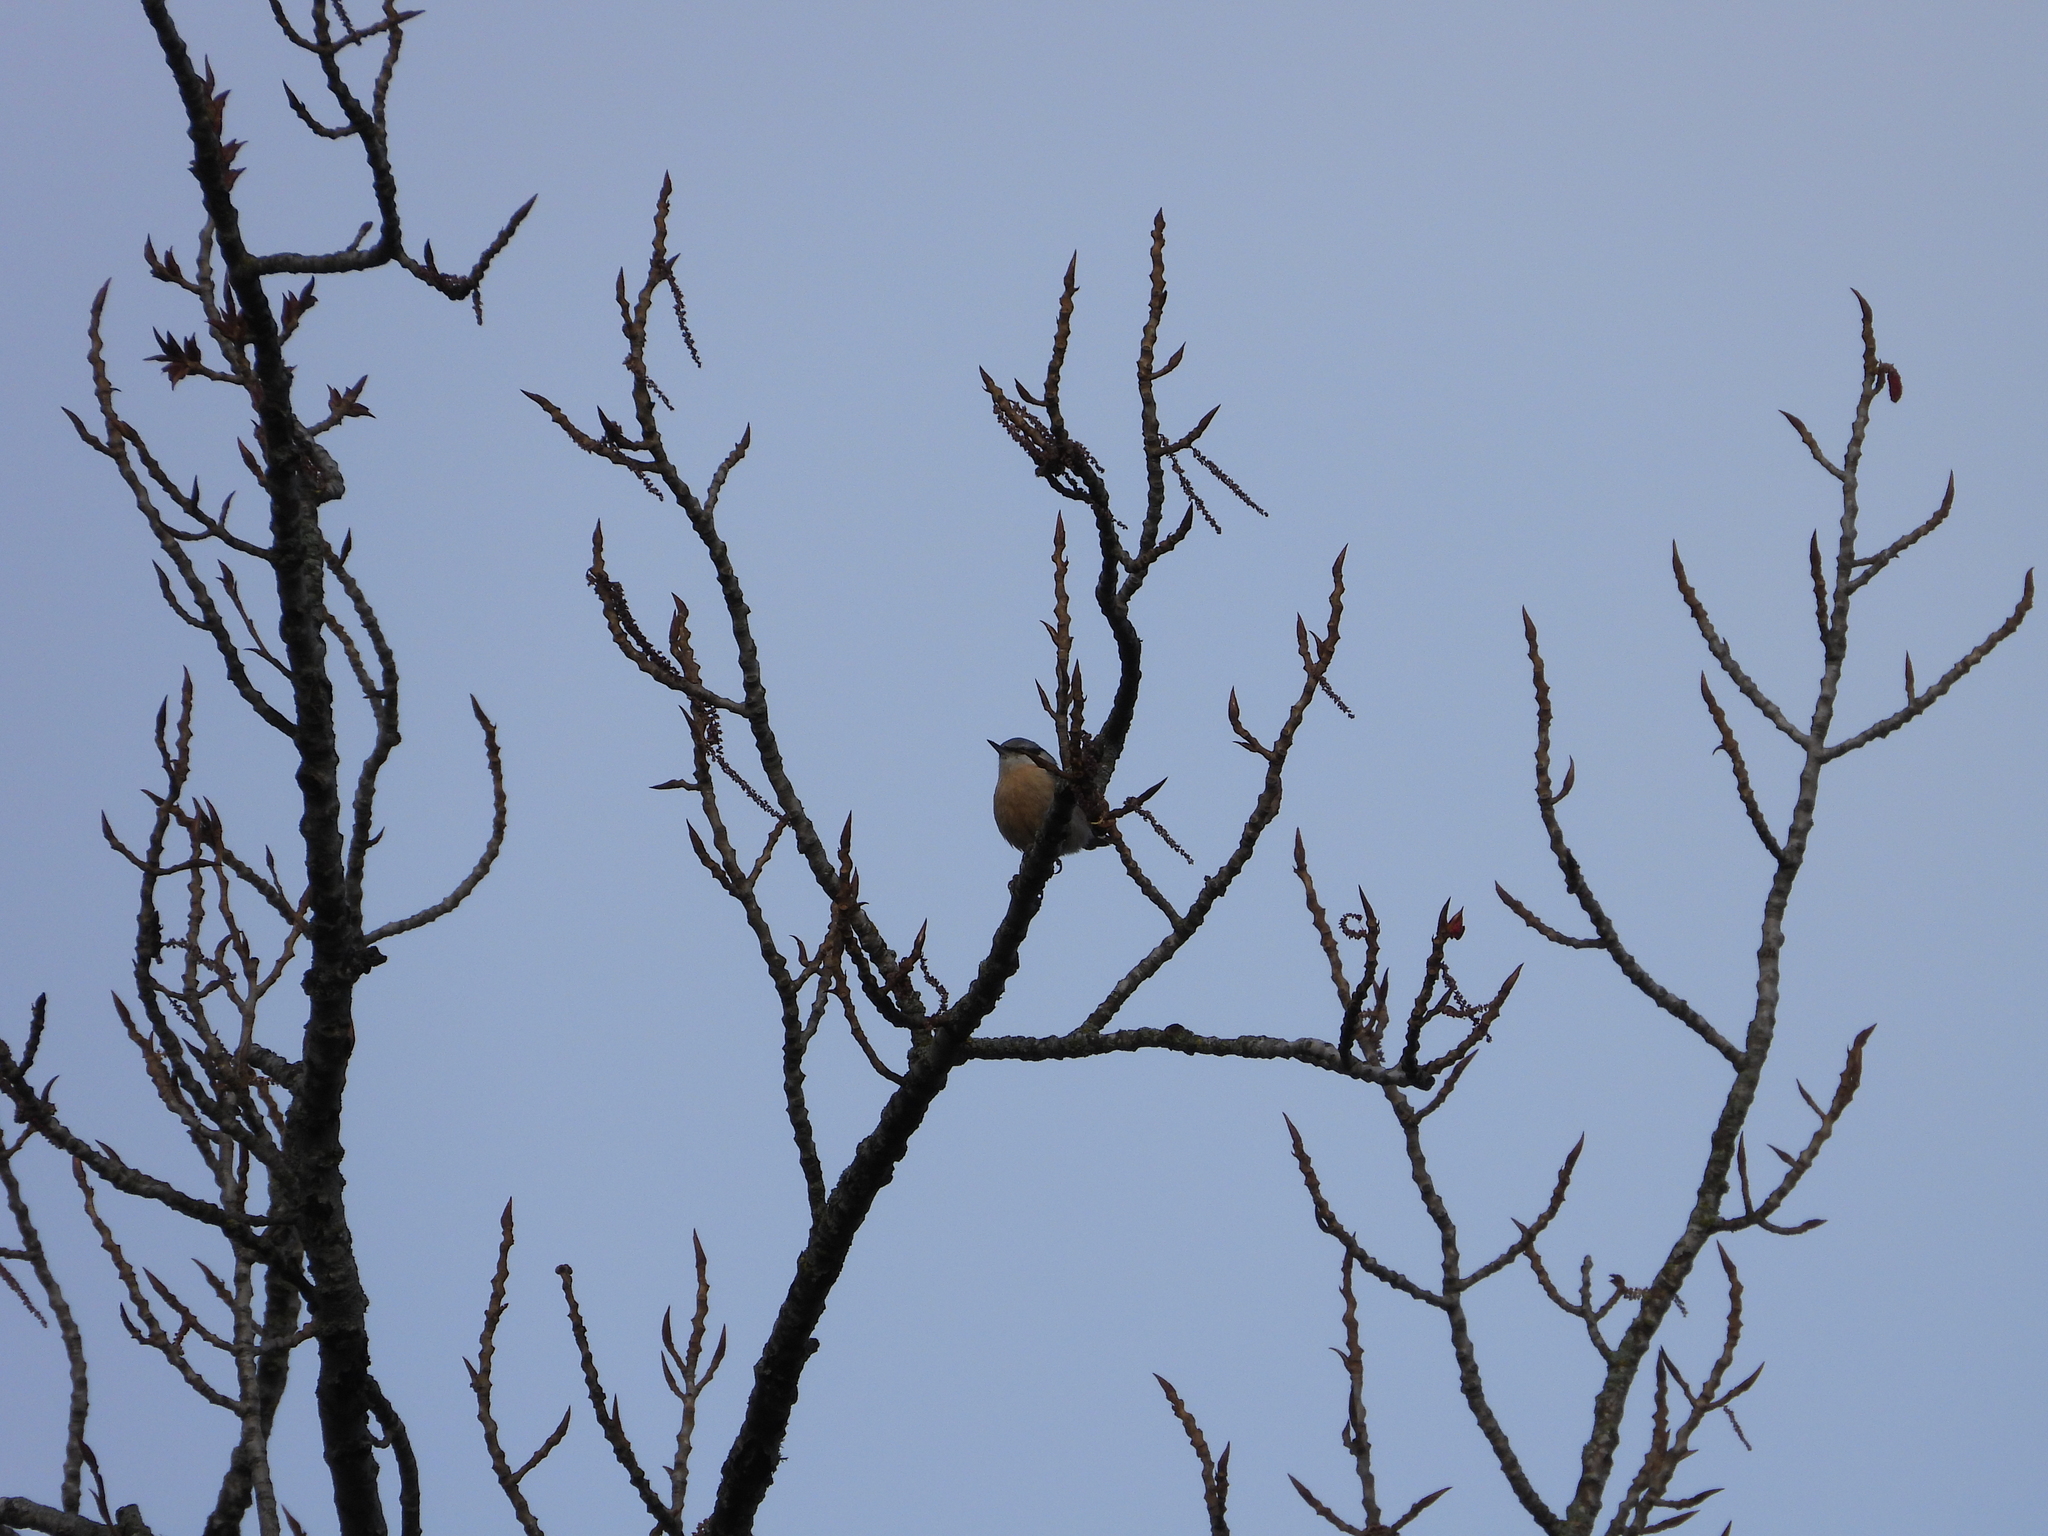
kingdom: Animalia
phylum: Chordata
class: Aves
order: Passeriformes
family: Sittidae
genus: Sitta
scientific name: Sitta europaea
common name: Eurasian nuthatch
